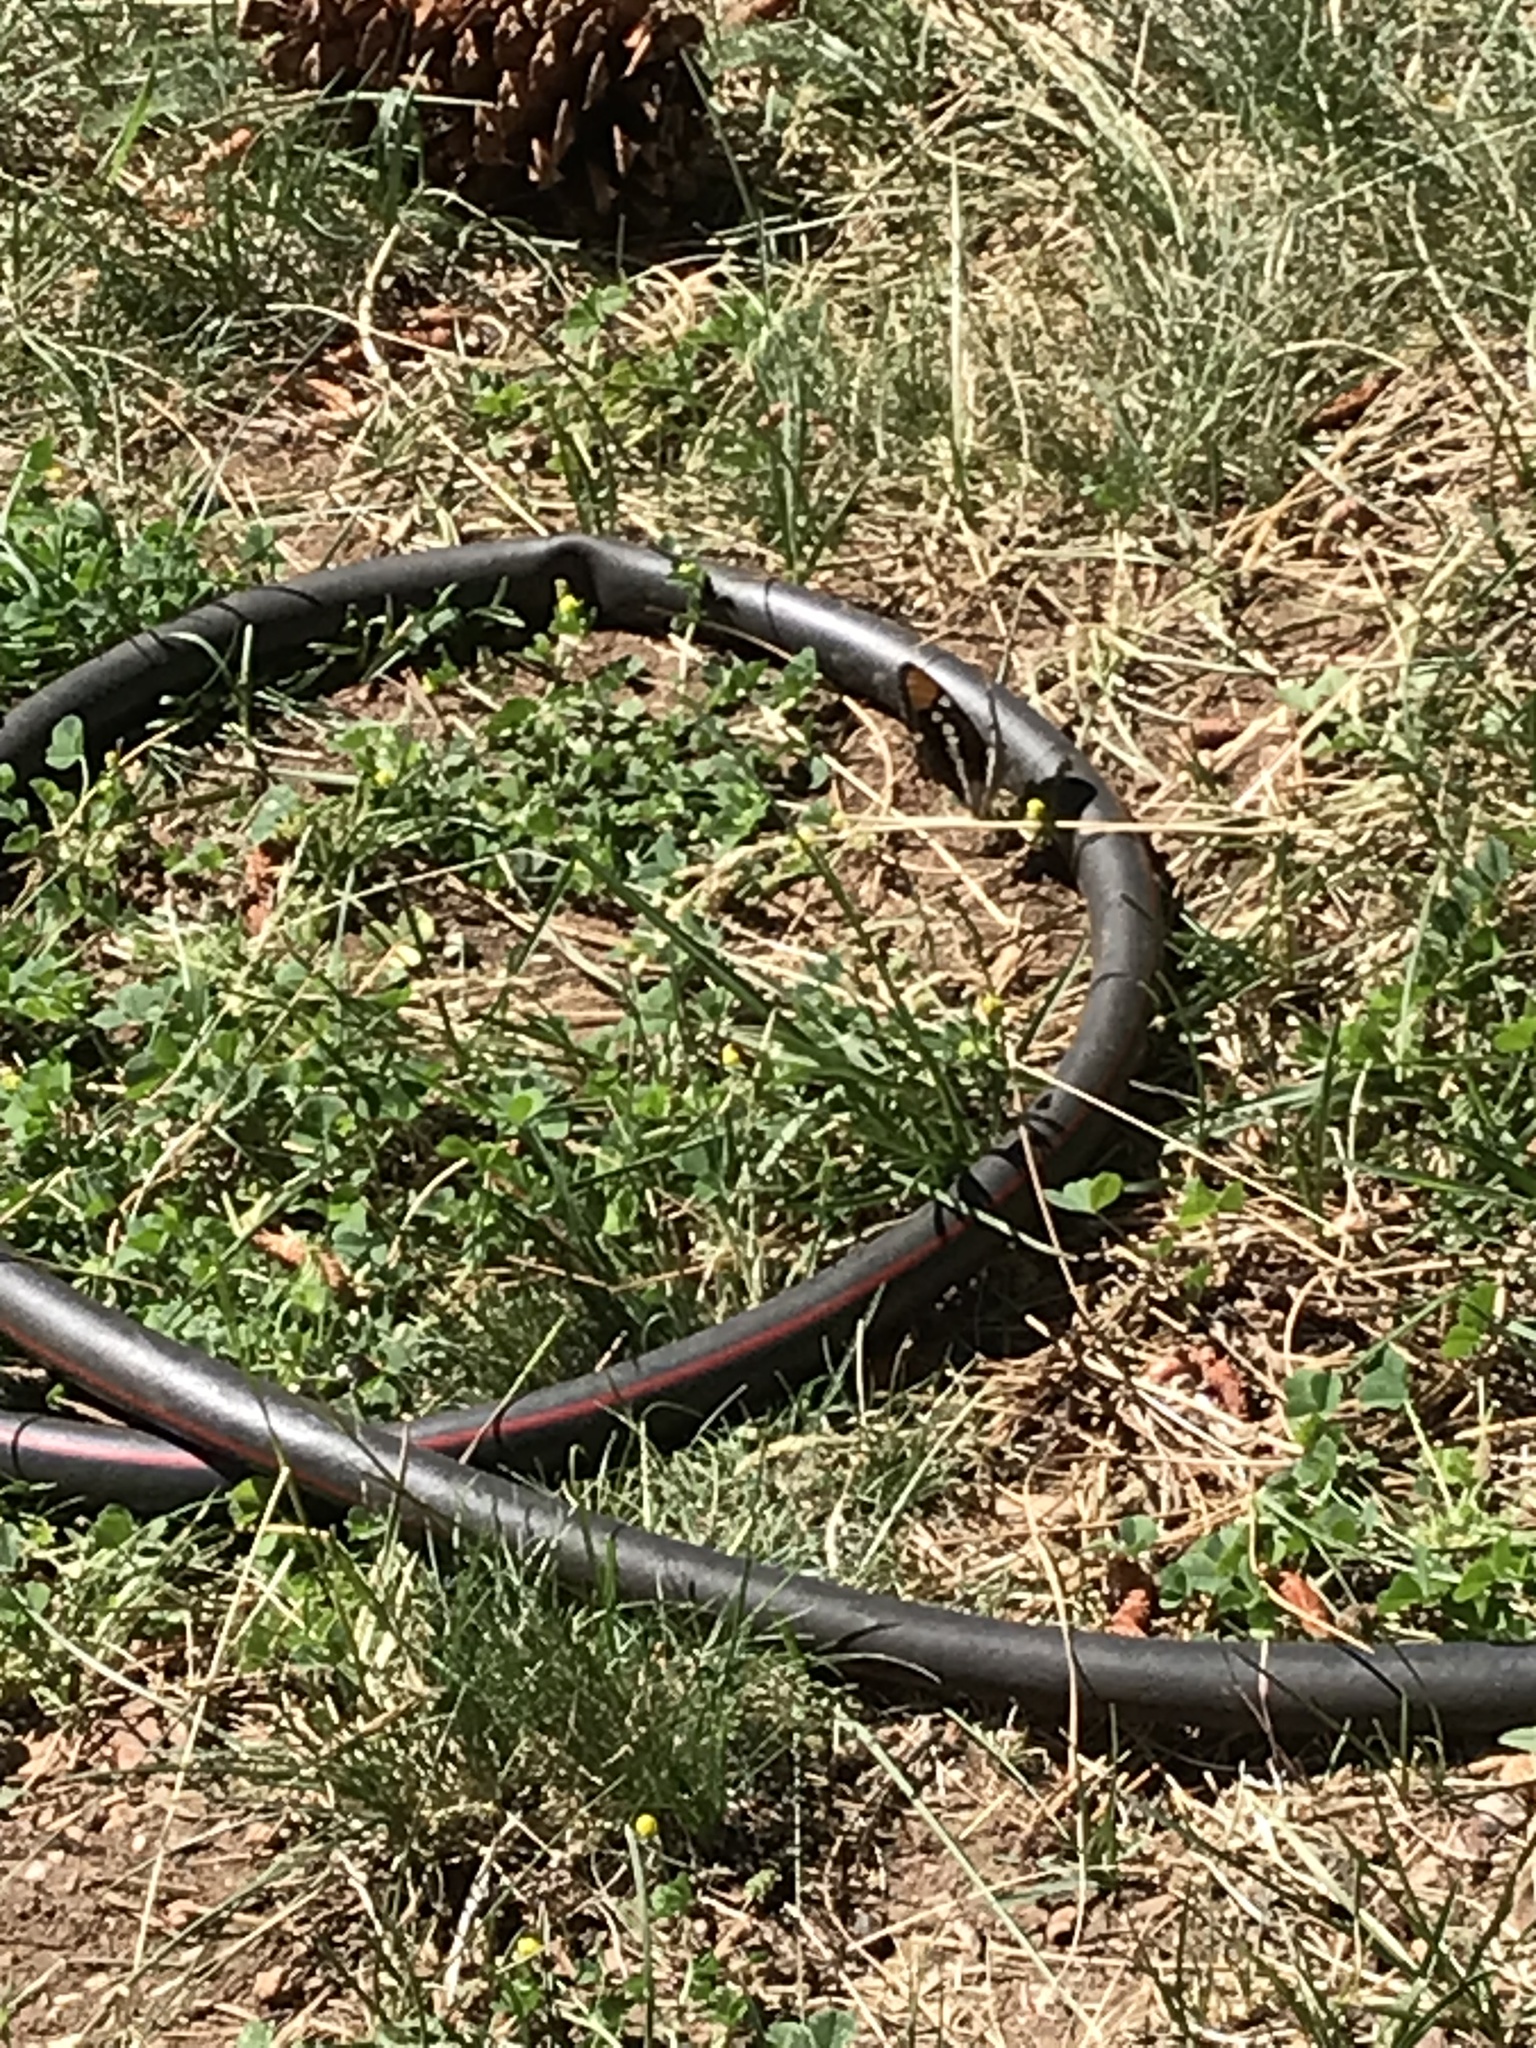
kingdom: Animalia
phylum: Arthropoda
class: Insecta
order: Lepidoptera
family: Nymphalidae
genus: Limenitis
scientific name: Limenitis bredowii
